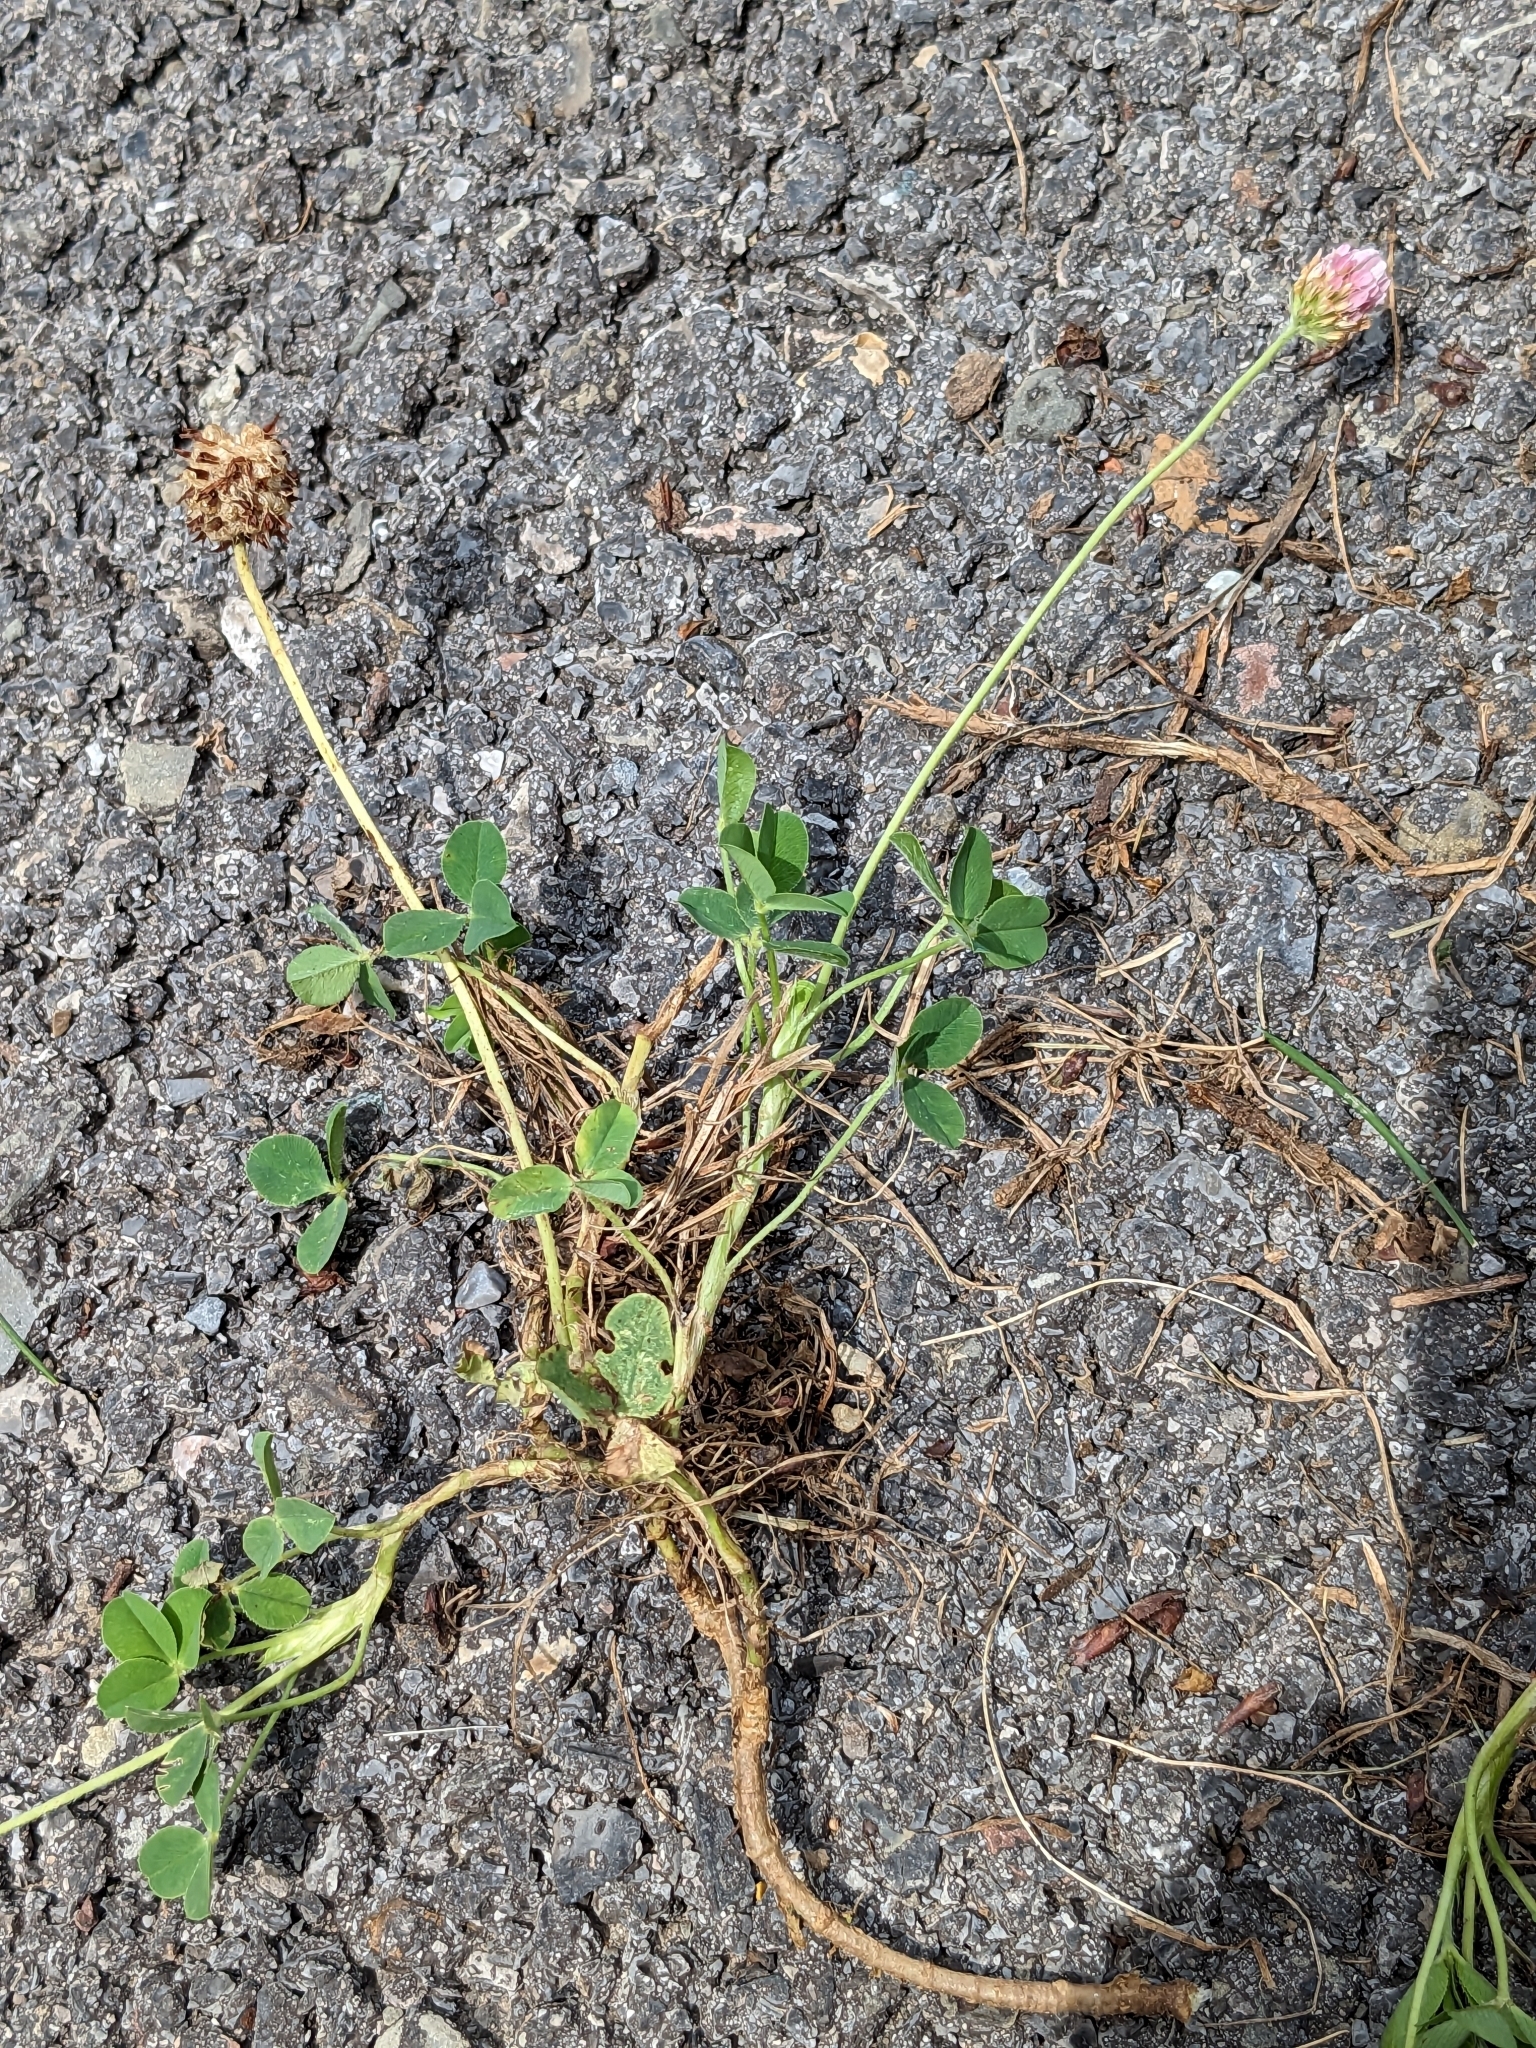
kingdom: Plantae
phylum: Tracheophyta
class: Magnoliopsida
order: Fabales
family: Fabaceae
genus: Trifolium
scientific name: Trifolium fragiferum
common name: Strawberry clover
